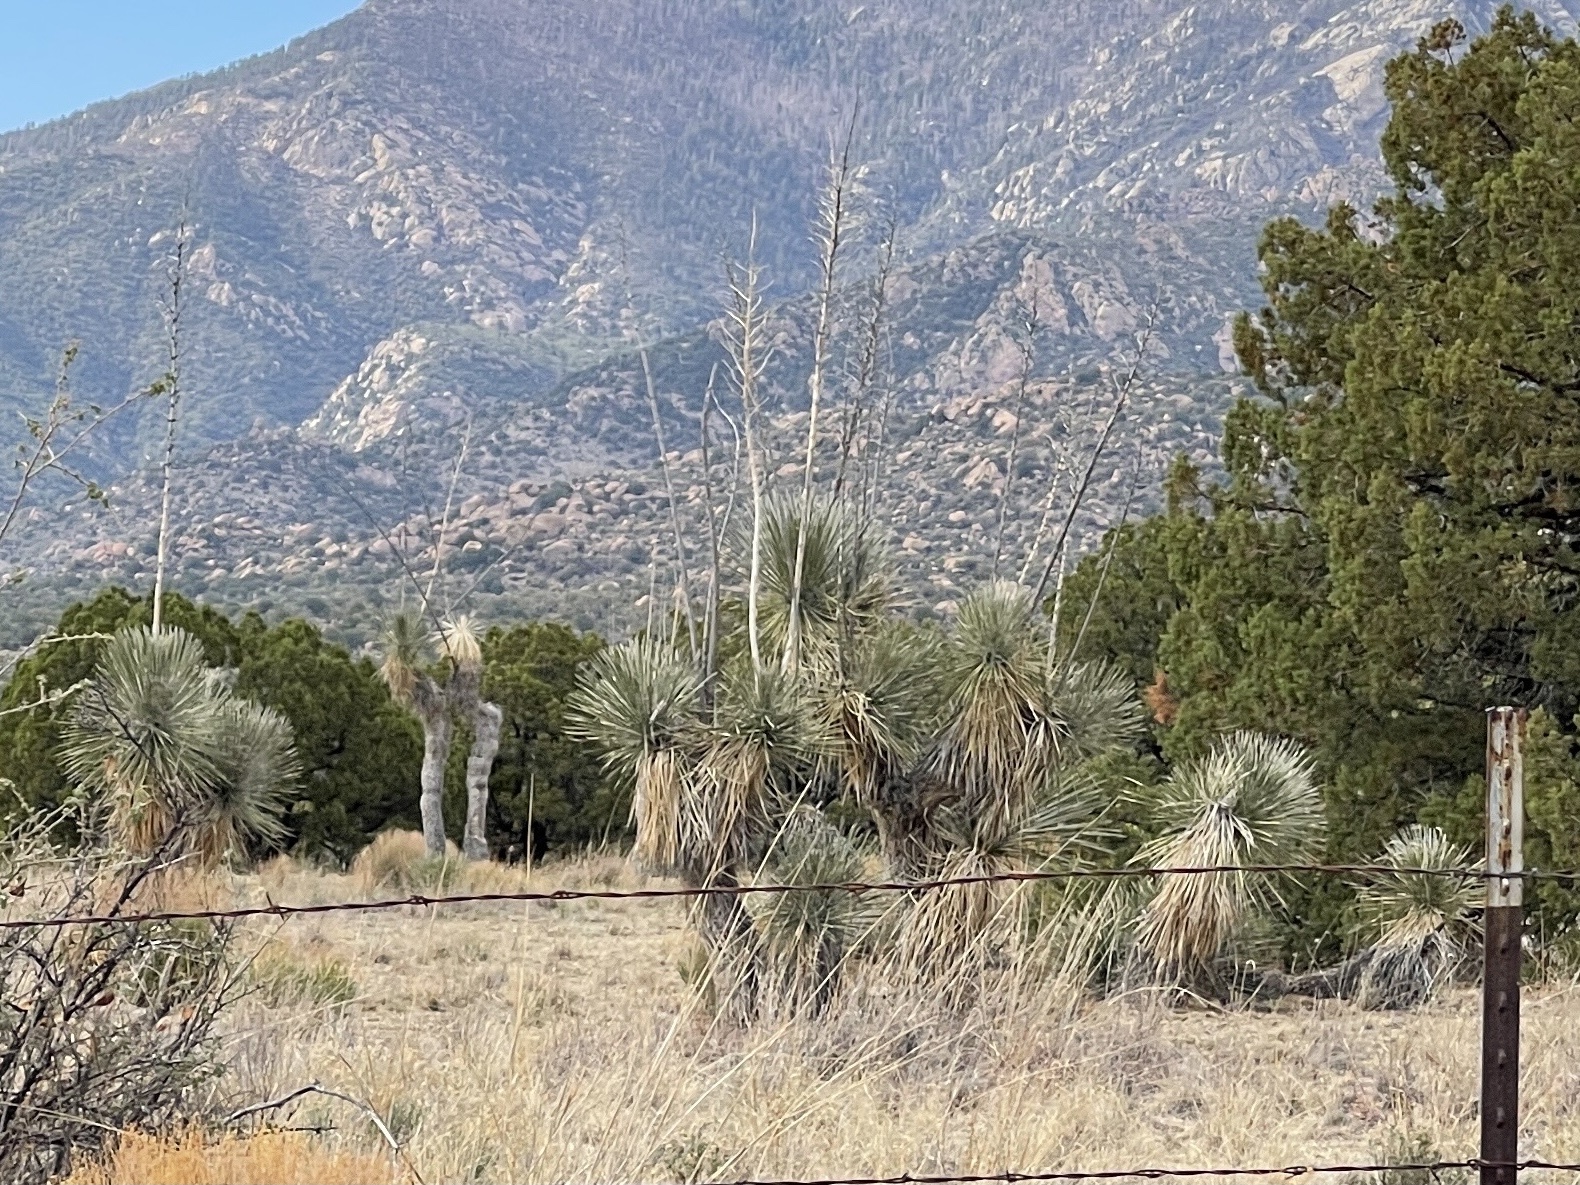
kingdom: Plantae
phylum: Tracheophyta
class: Liliopsida
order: Asparagales
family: Asparagaceae
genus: Yucca
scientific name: Yucca elata
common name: Palmella
